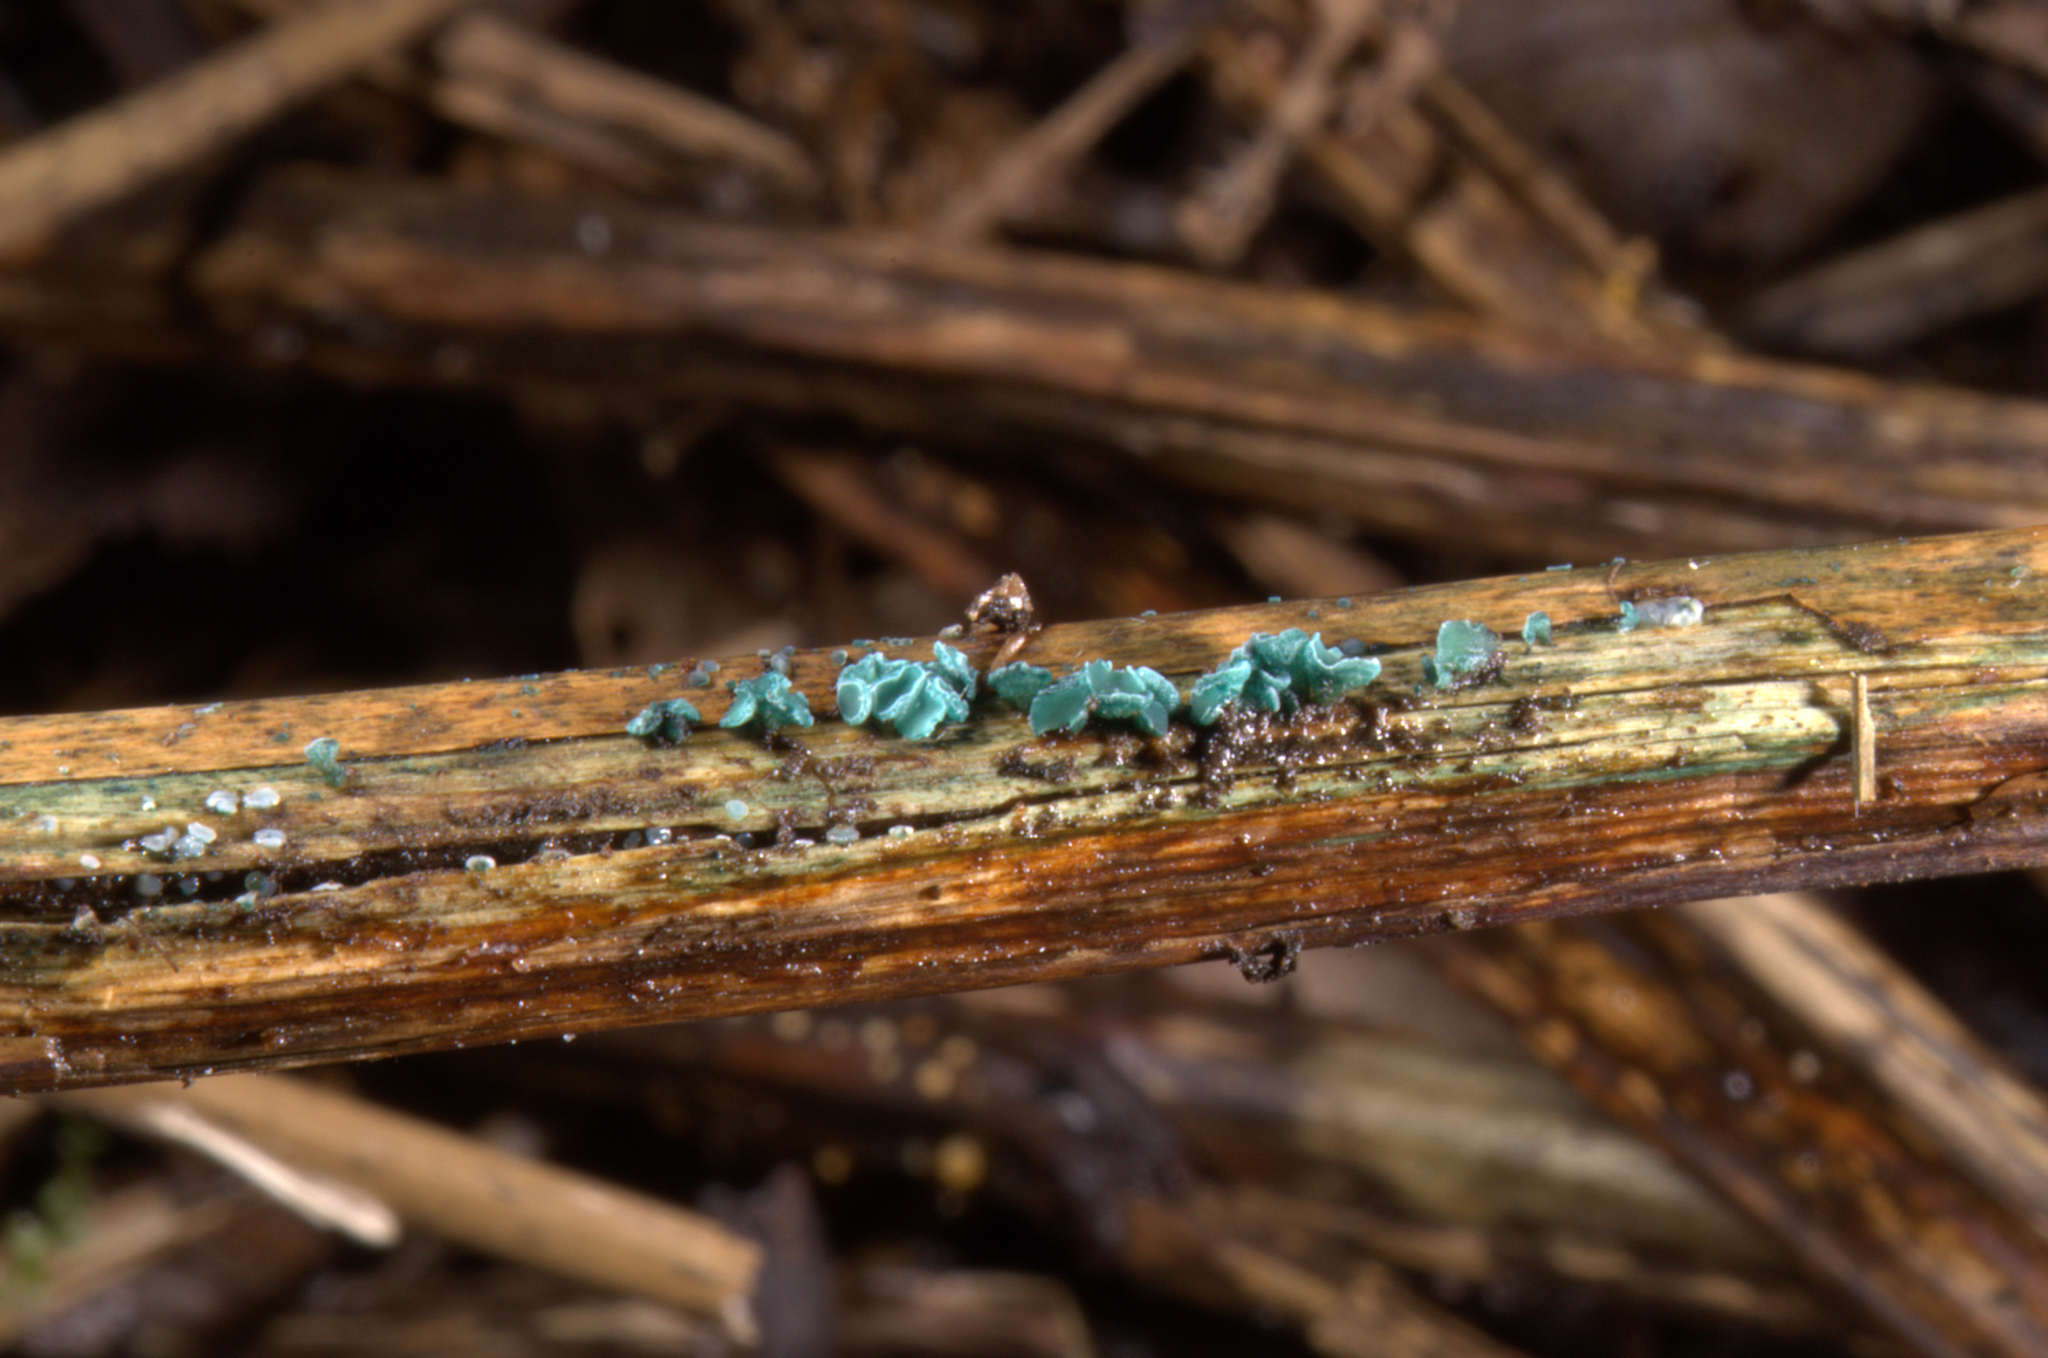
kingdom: Fungi
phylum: Ascomycota
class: Leotiomycetes
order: Helotiales
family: Chlorociboriaceae
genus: Chlorociboria
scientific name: Chlorociboria aeruginella
